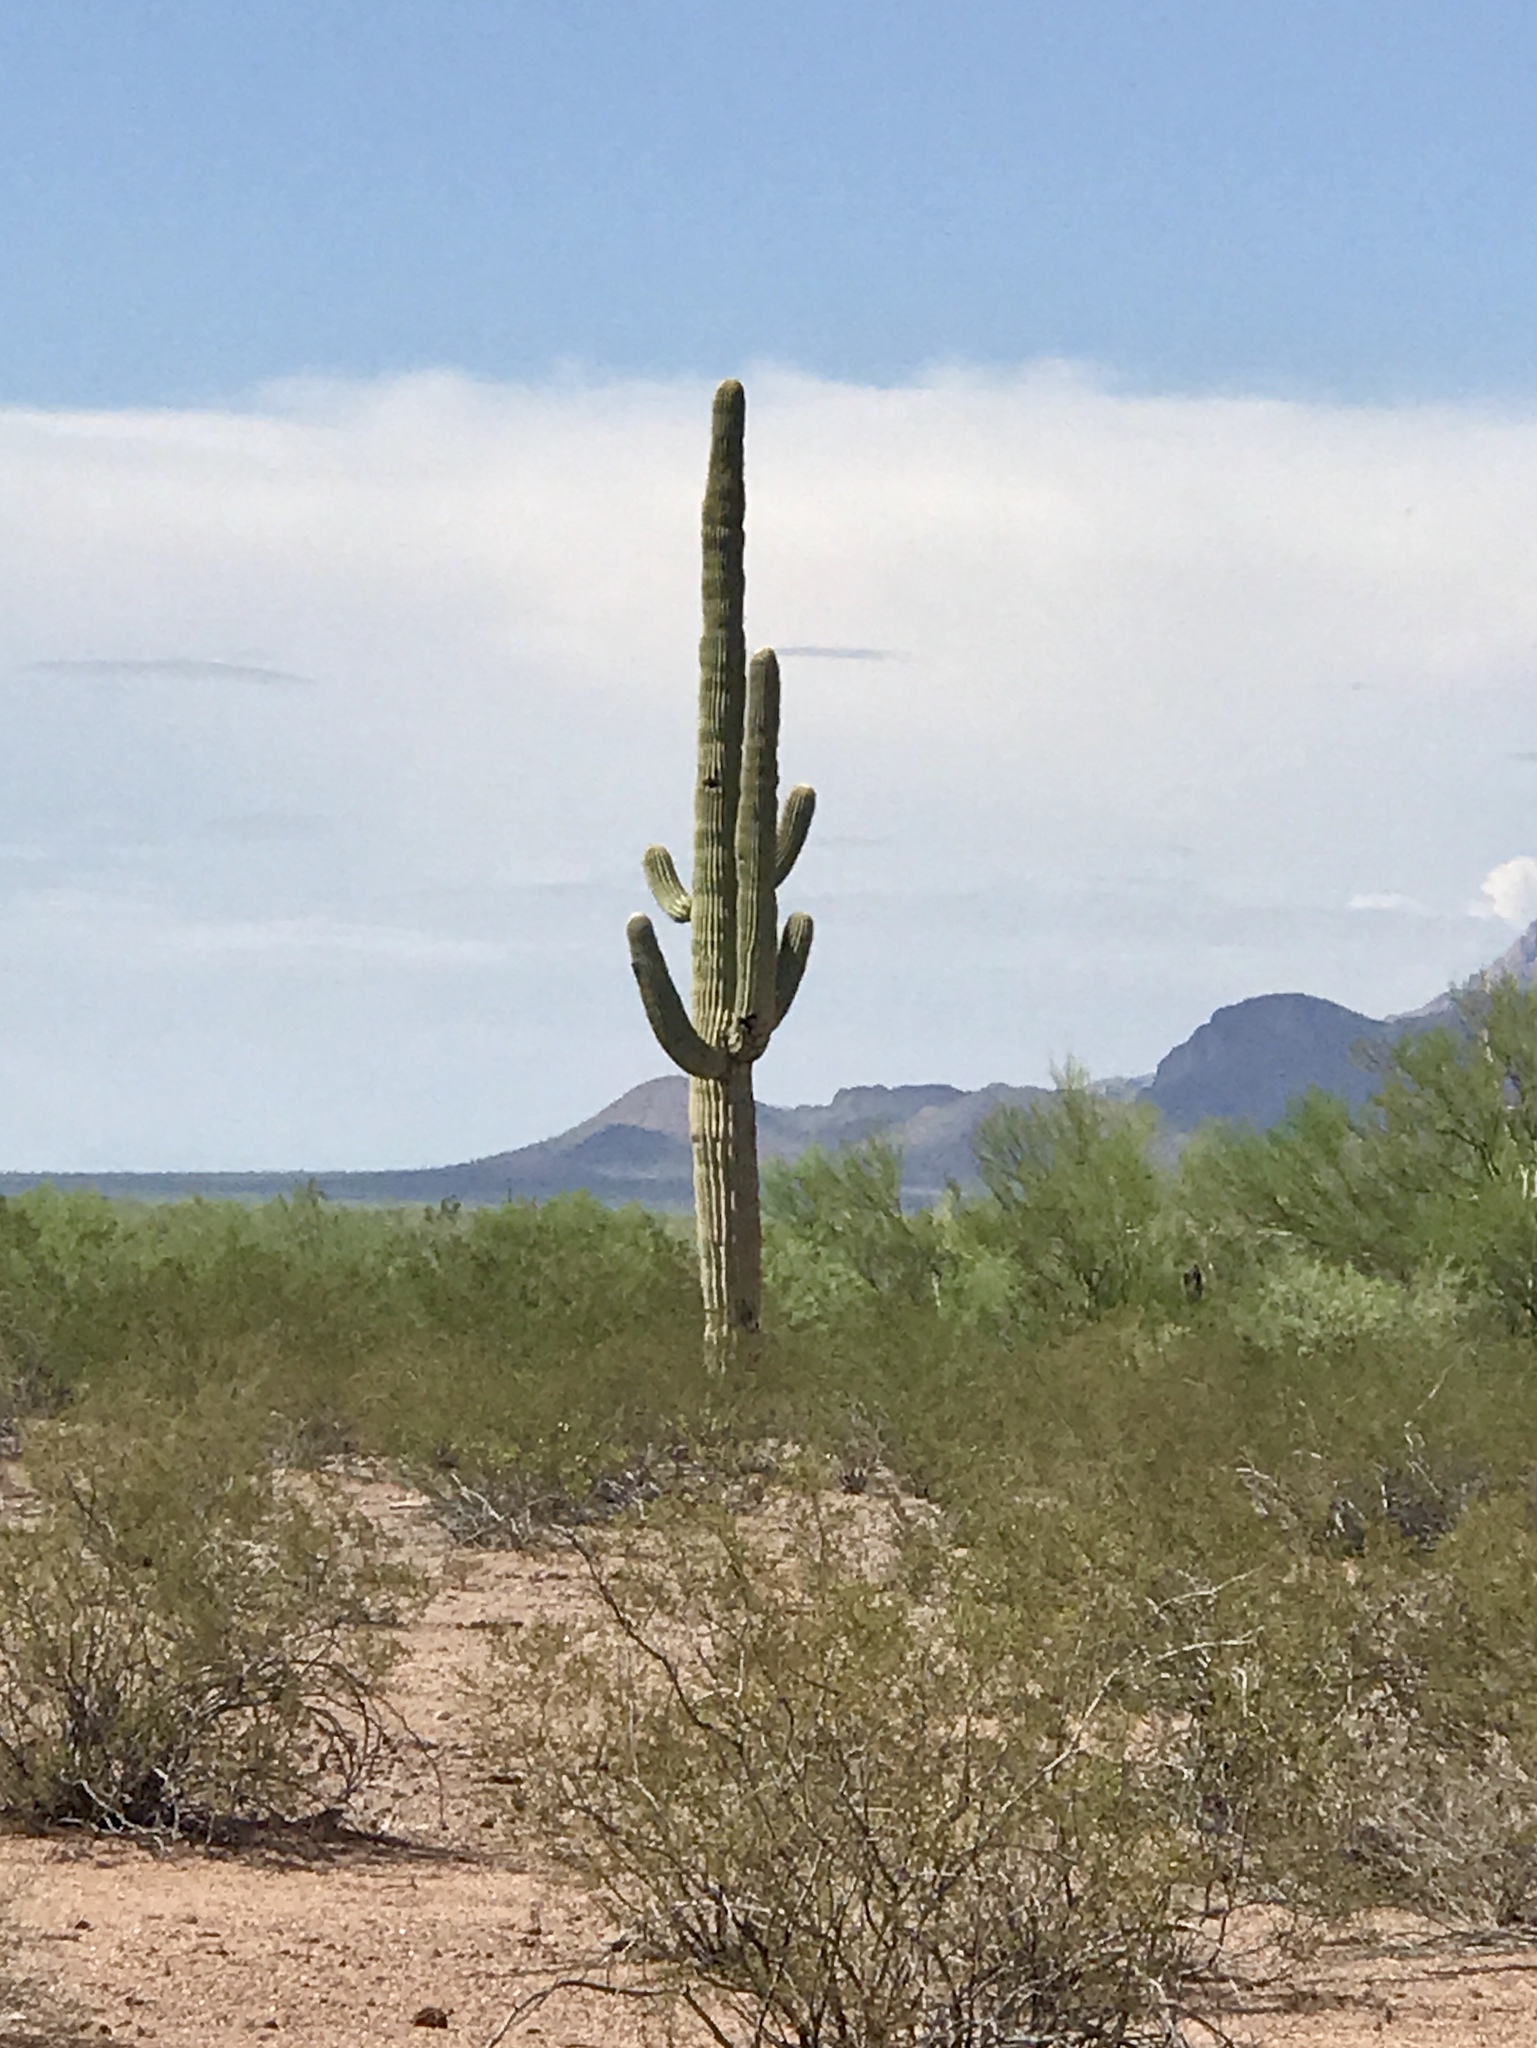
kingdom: Plantae
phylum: Tracheophyta
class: Magnoliopsida
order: Caryophyllales
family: Cactaceae
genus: Carnegiea
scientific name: Carnegiea gigantea
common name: Saguaro
